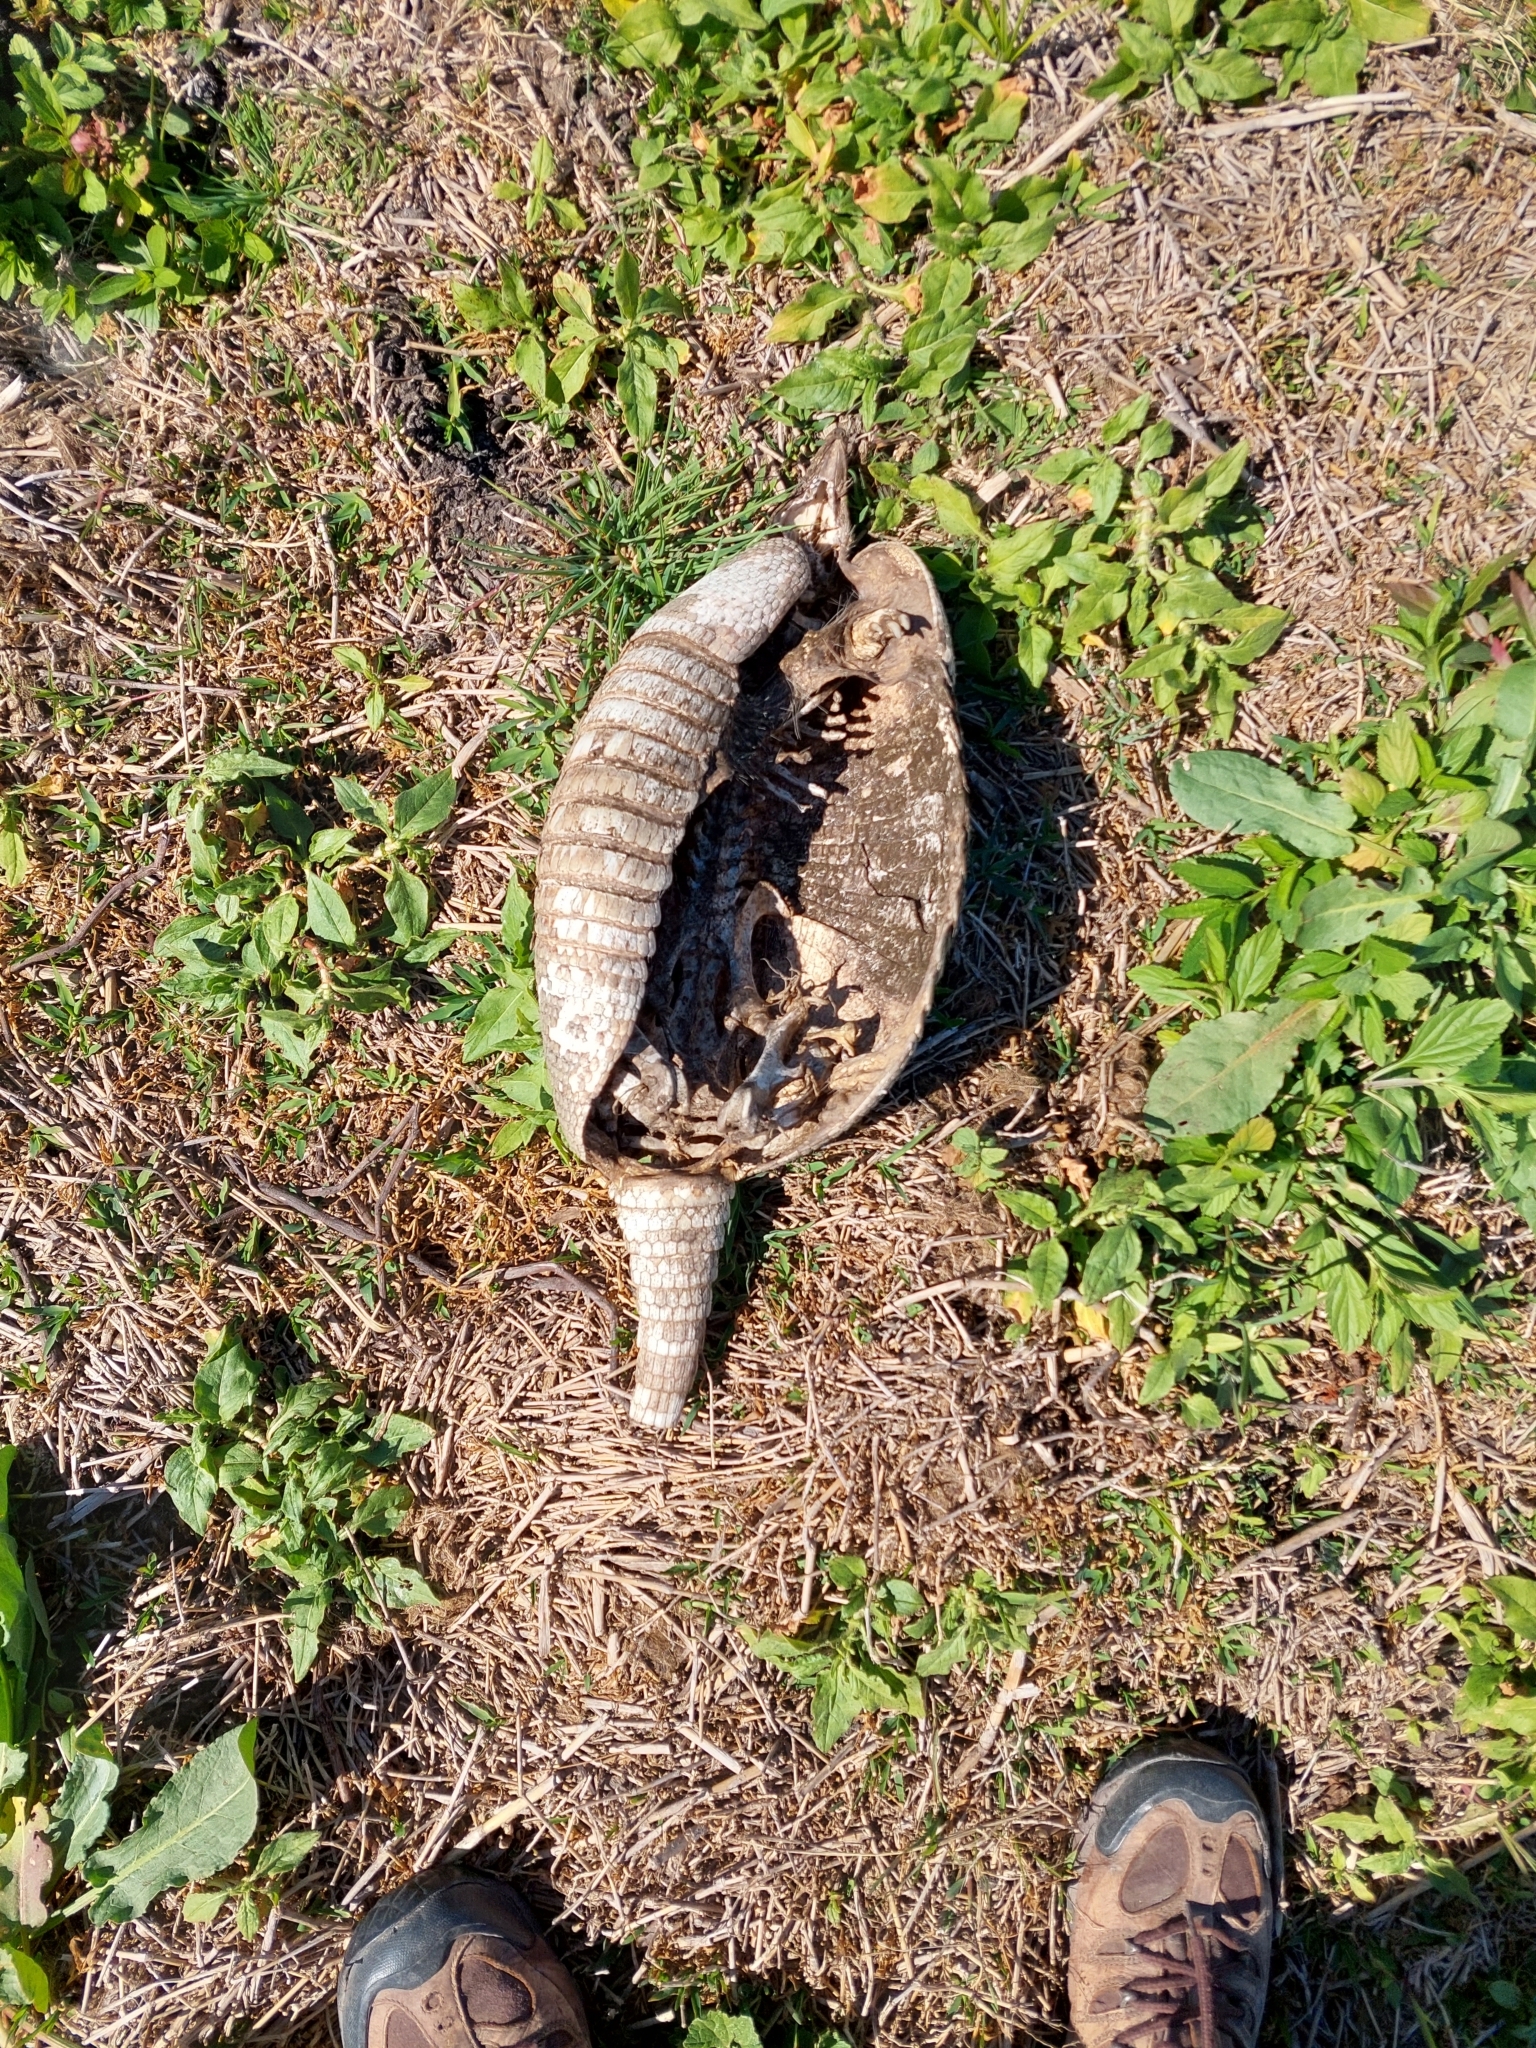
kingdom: Animalia
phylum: Chordata
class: Mammalia
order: Cingulata
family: Dasypodidae
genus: Dasypus
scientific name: Dasypus novemcinctus
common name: Nine-banded armadillo
